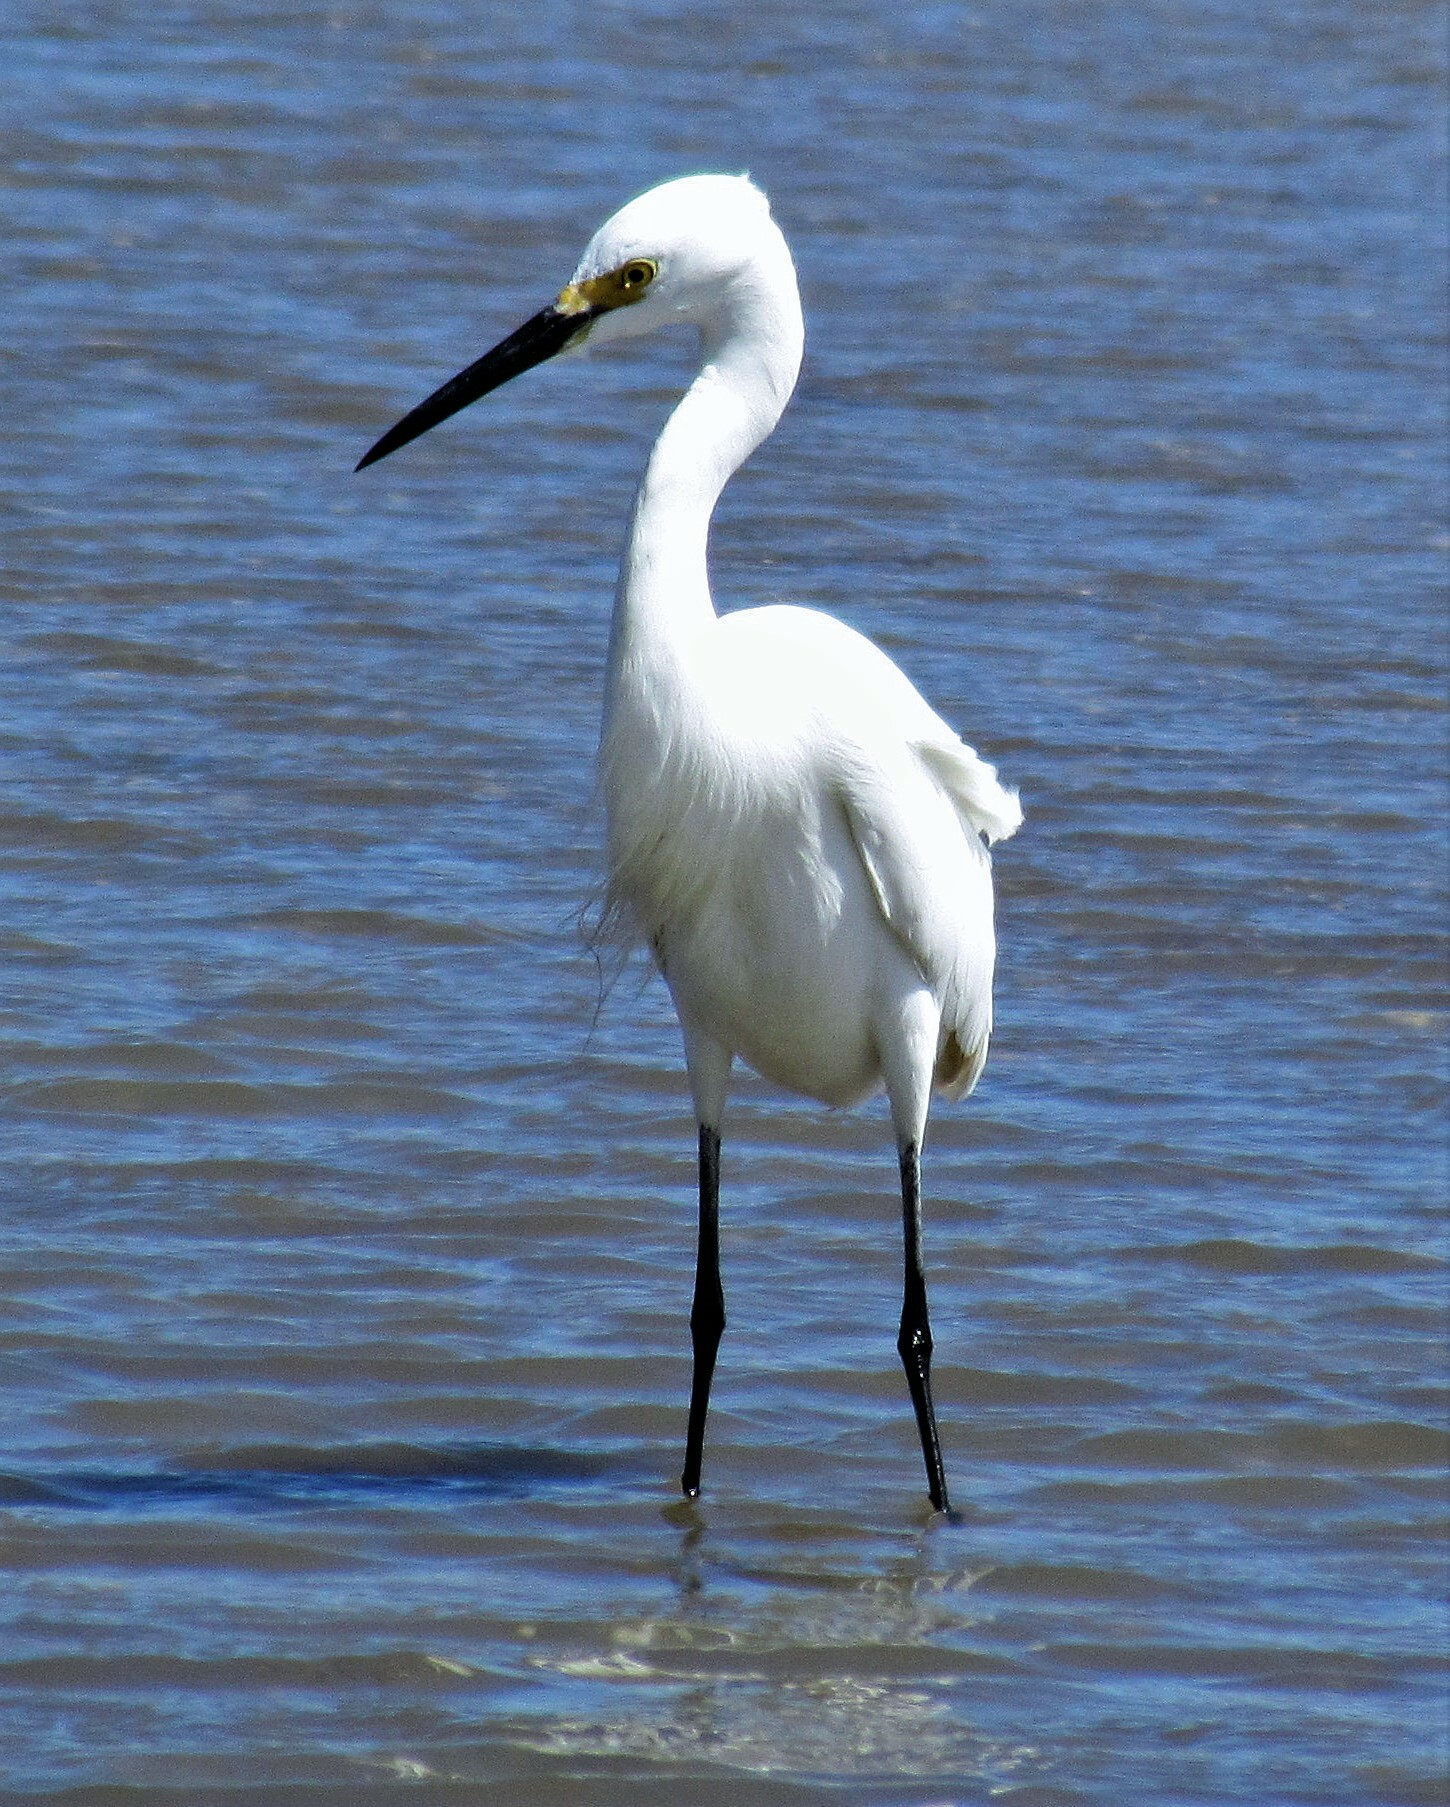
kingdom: Animalia
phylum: Chordata
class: Aves
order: Pelecaniformes
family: Ardeidae
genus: Egretta
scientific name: Egretta thula
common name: Snowy egret
